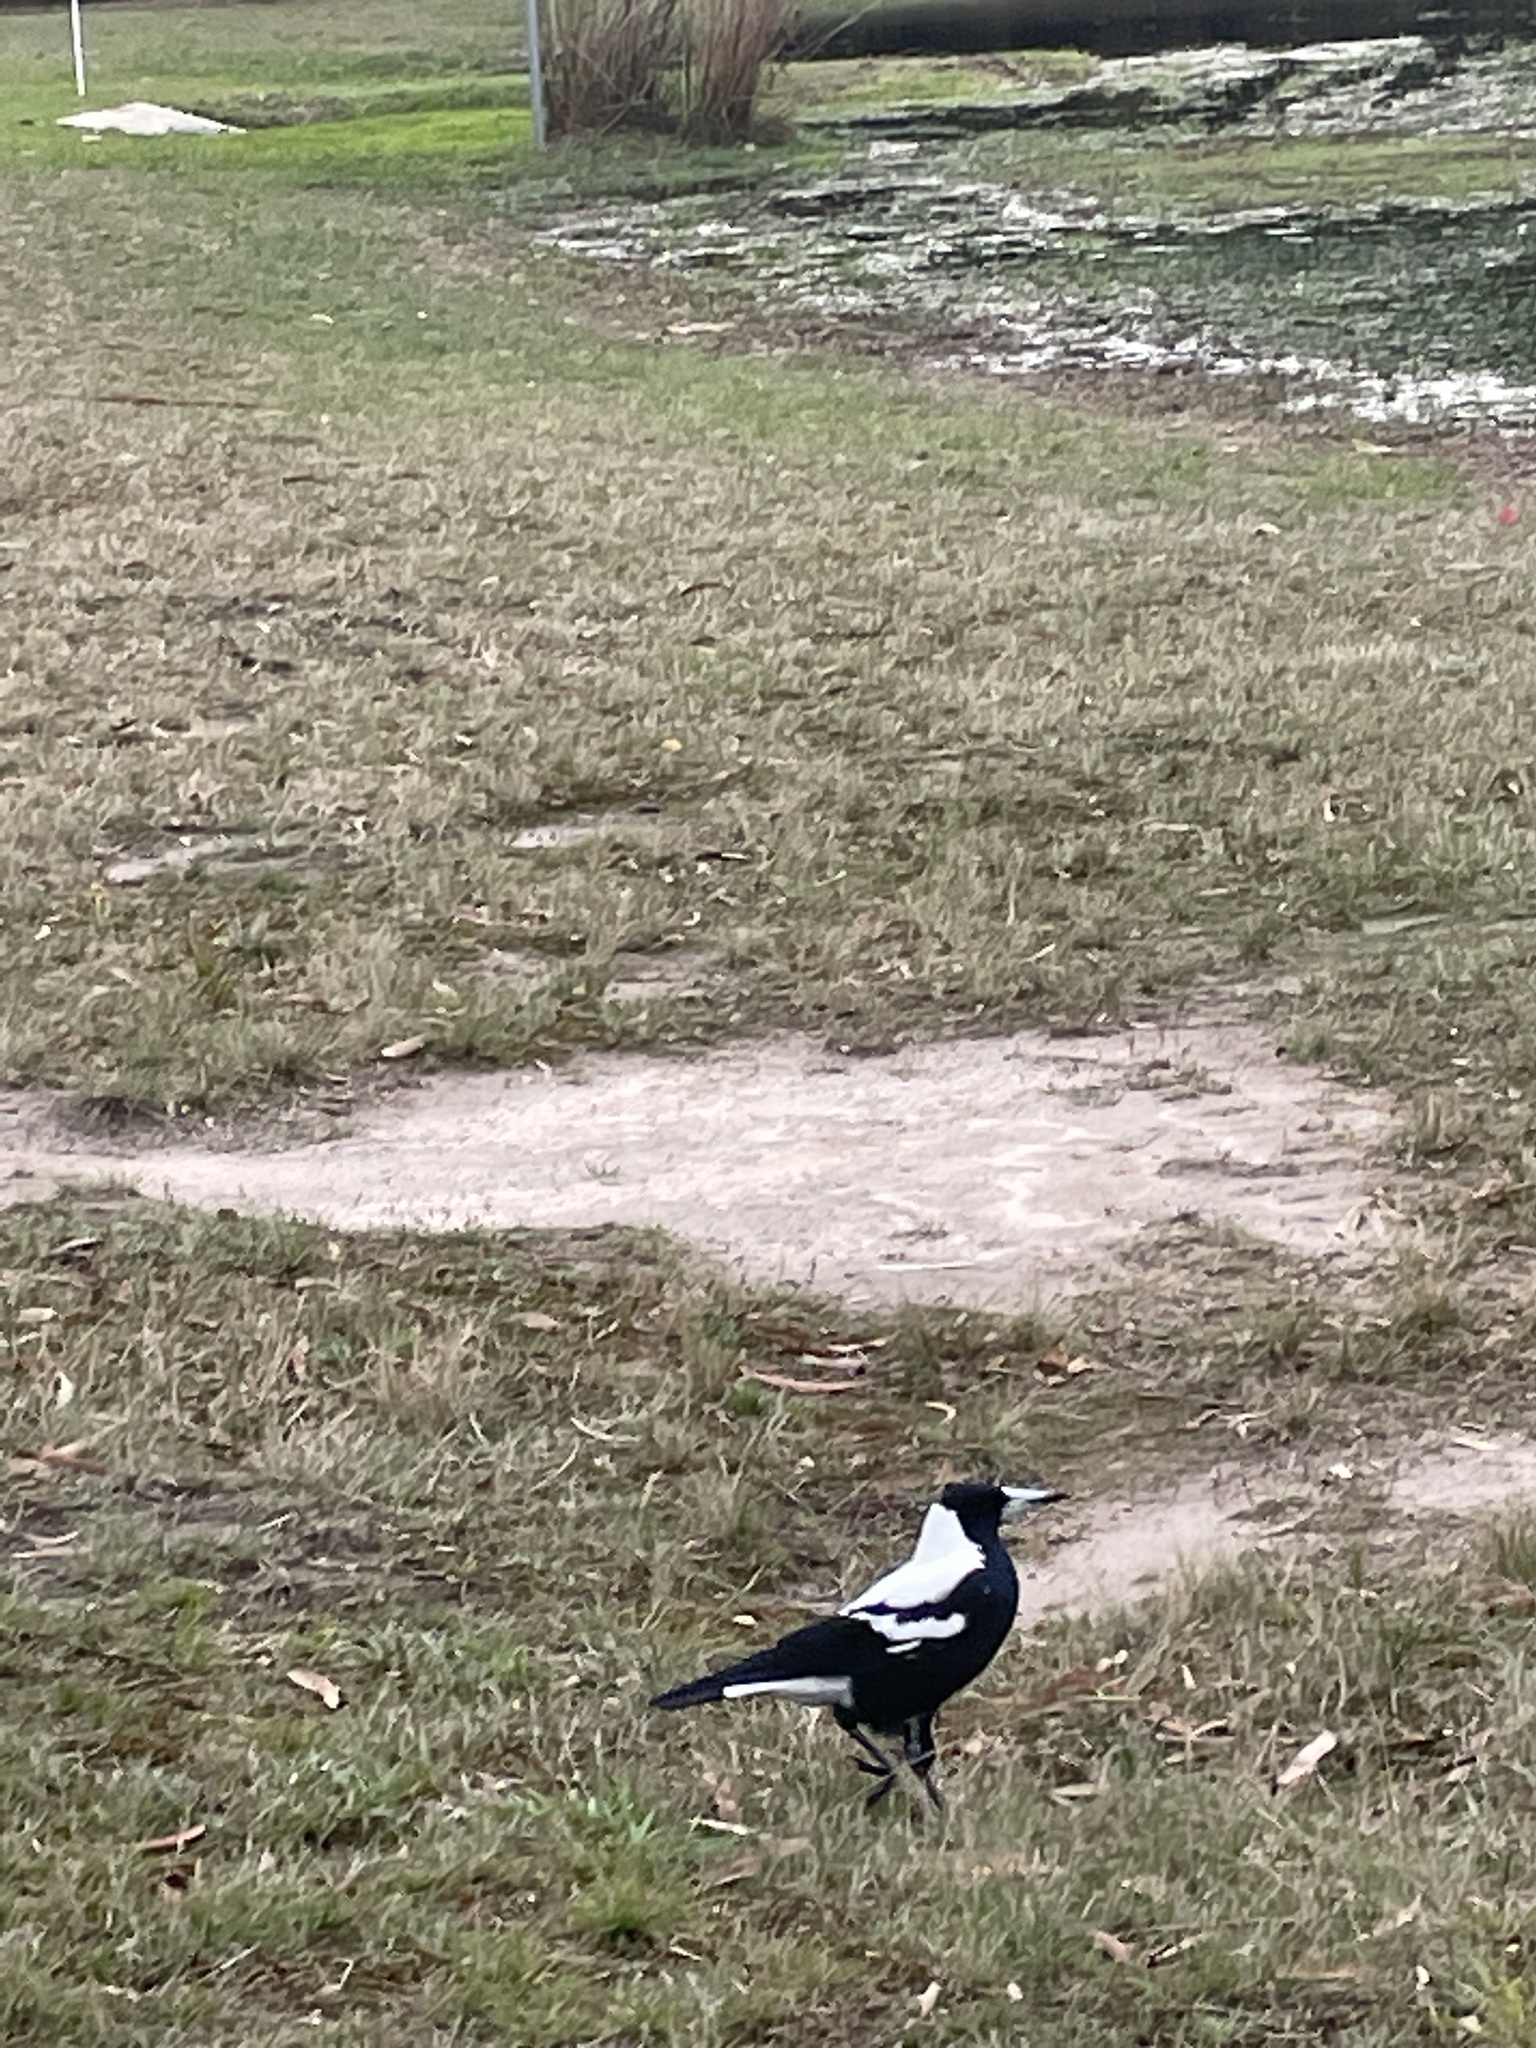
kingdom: Animalia
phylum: Chordata
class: Aves
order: Passeriformes
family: Cracticidae
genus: Gymnorhina
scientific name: Gymnorhina tibicen
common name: Australian magpie
